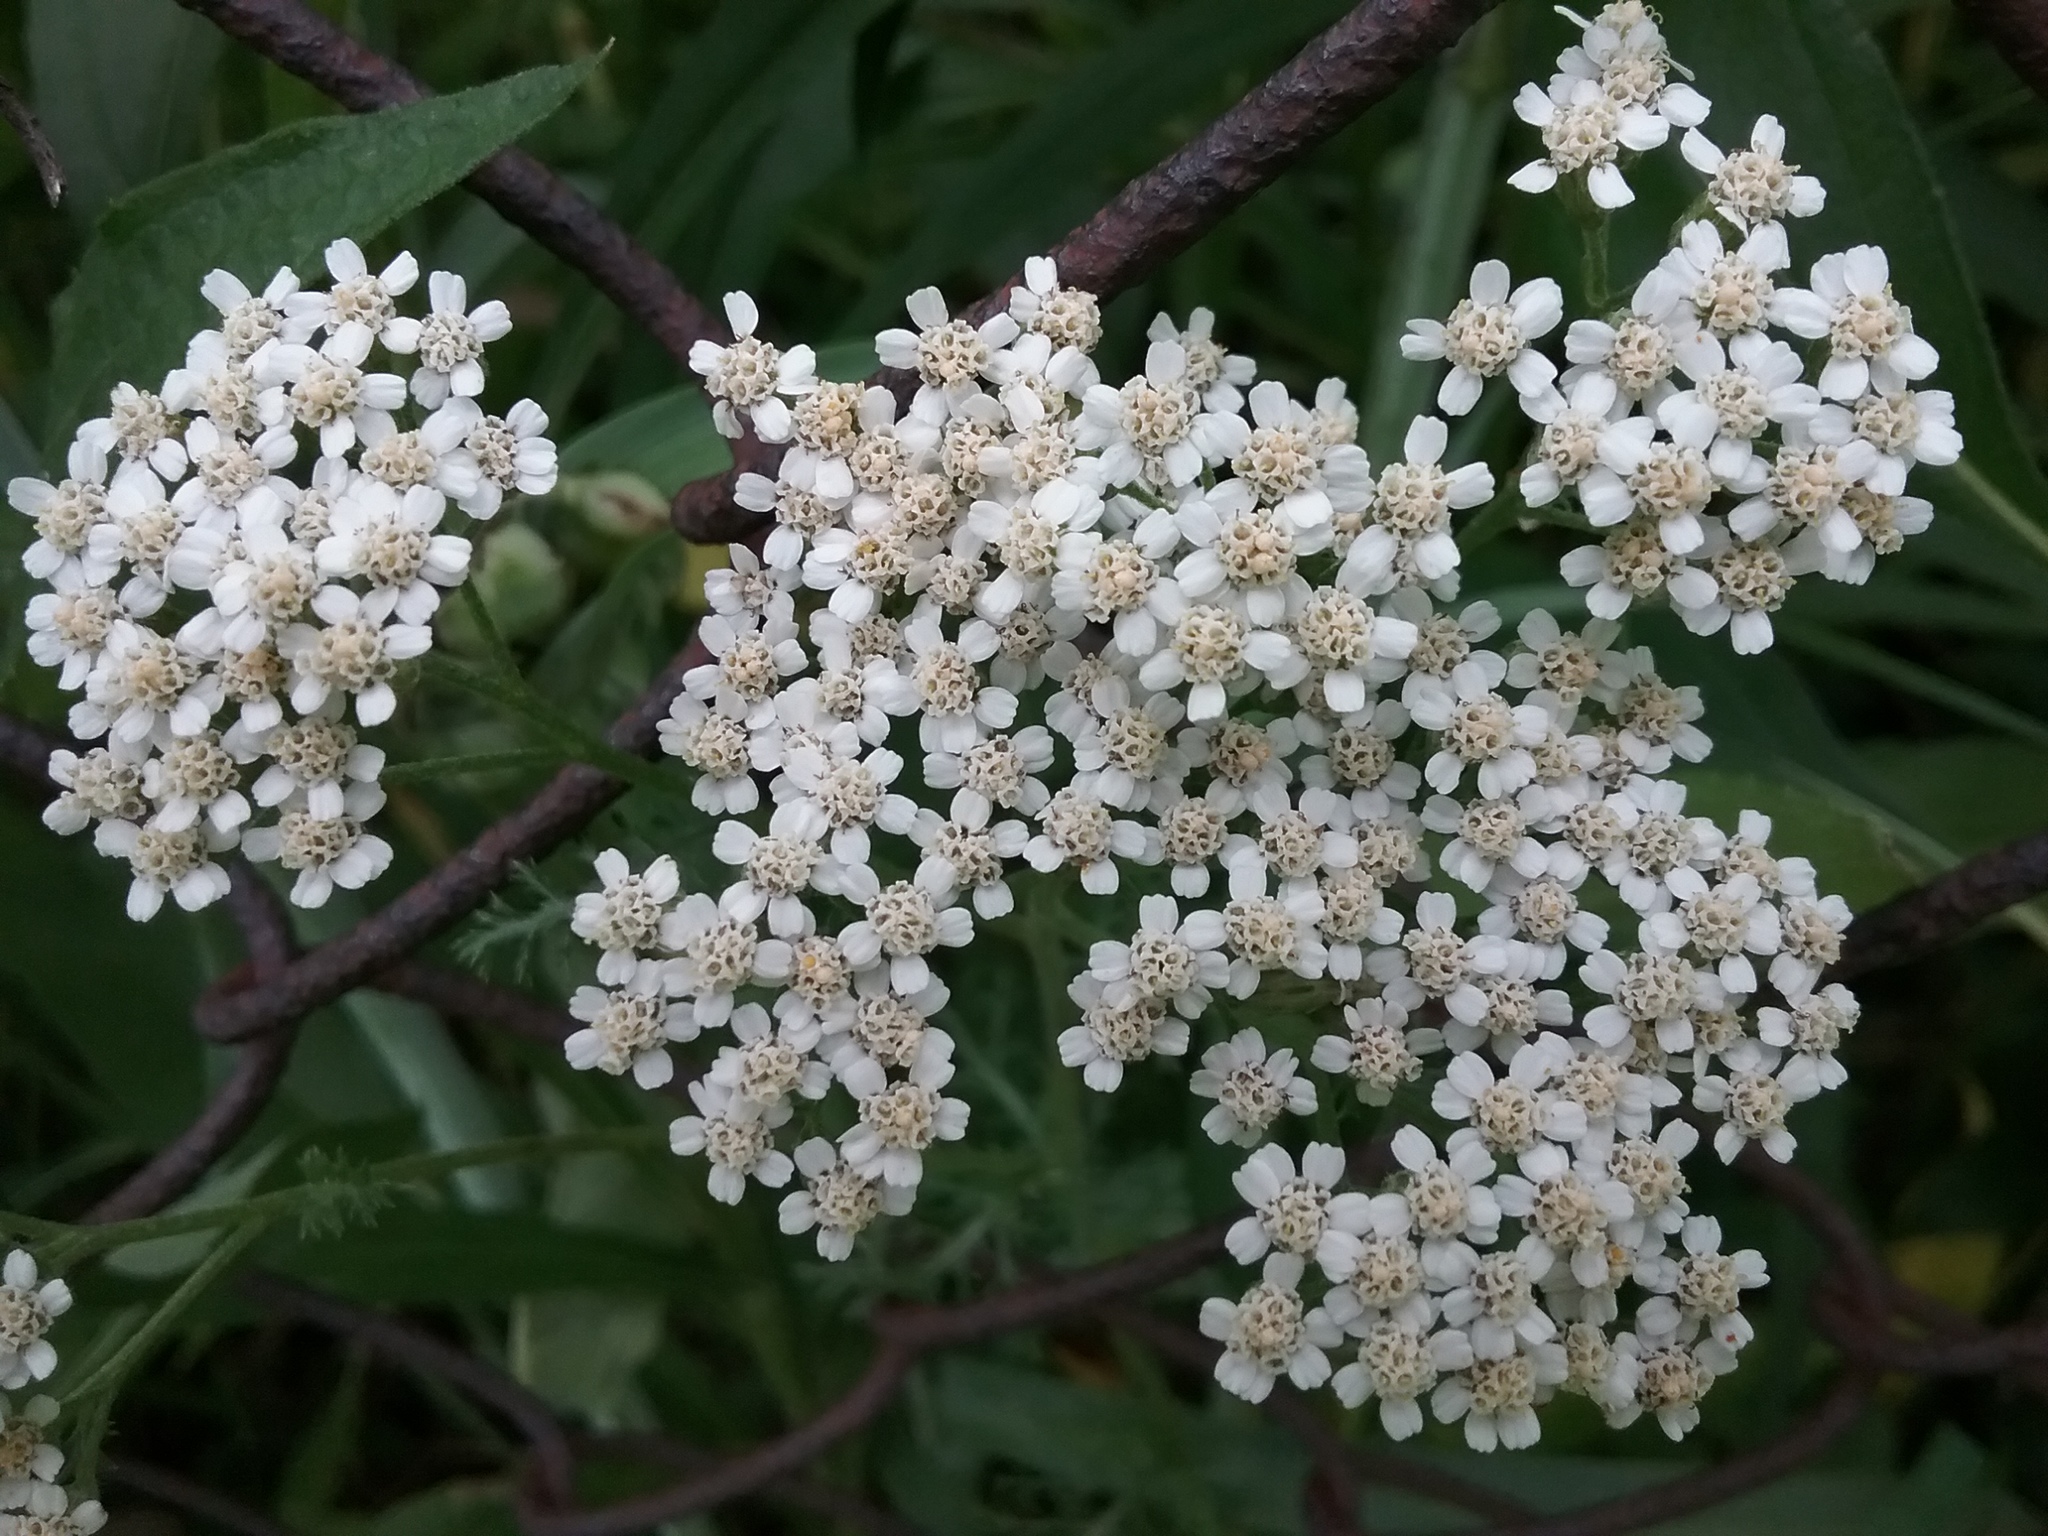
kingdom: Plantae
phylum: Tracheophyta
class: Magnoliopsida
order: Asterales
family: Asteraceae
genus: Achillea
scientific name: Achillea millefolium
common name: Yarrow
